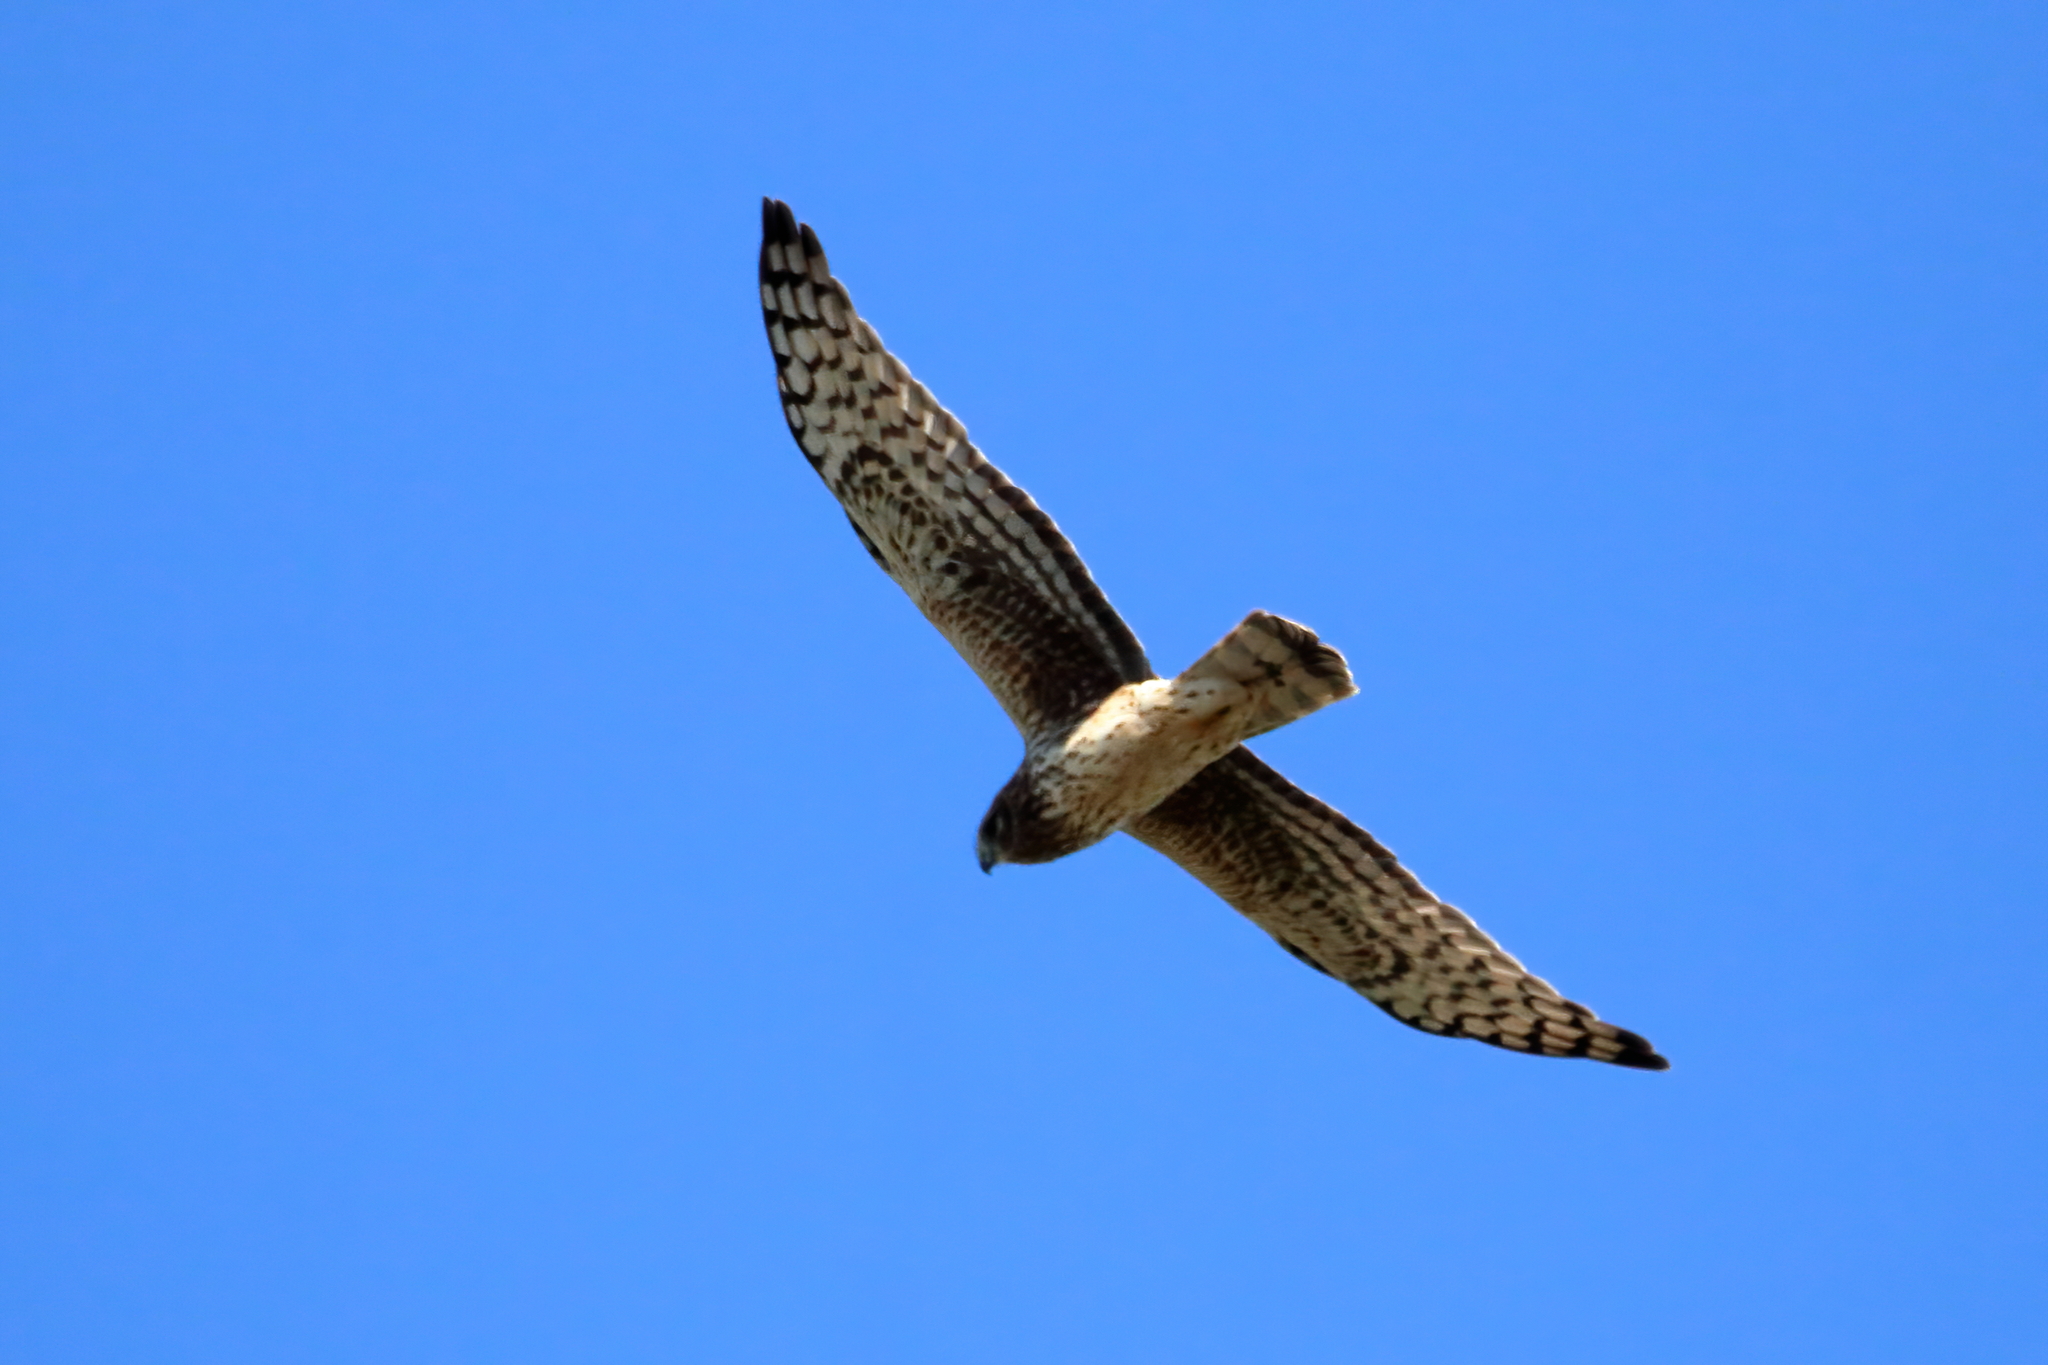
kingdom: Animalia
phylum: Chordata
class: Aves
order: Accipitriformes
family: Accipitridae
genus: Circus
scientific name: Circus cyaneus
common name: Hen harrier
